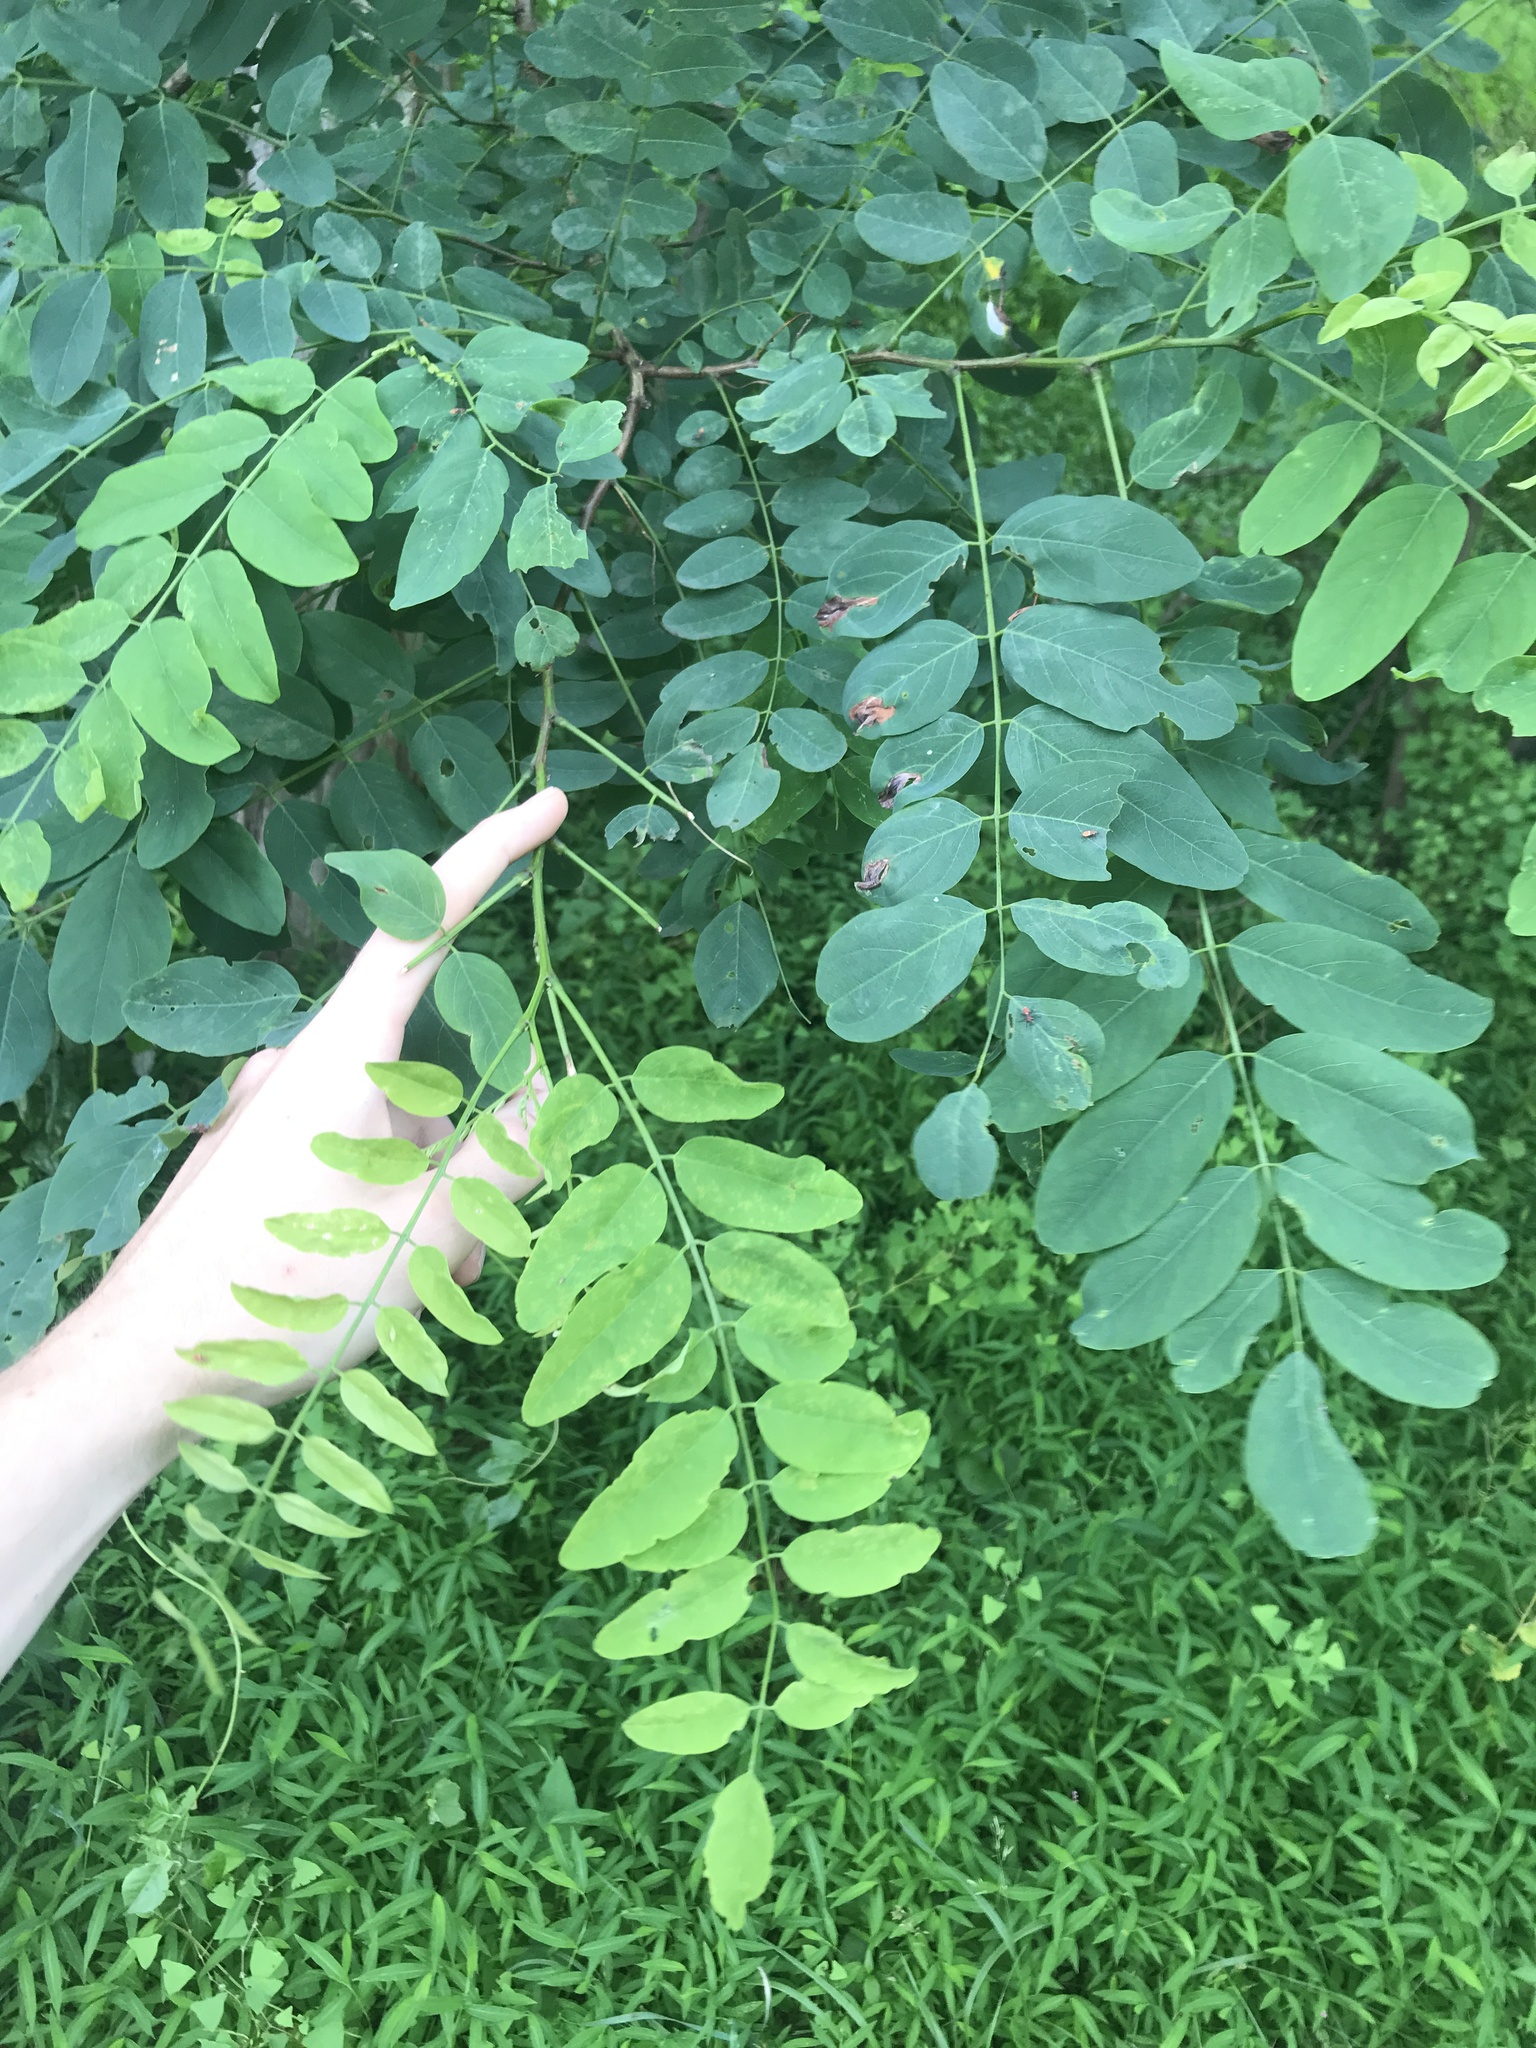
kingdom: Plantae
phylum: Tracheophyta
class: Magnoliopsida
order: Fabales
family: Fabaceae
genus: Robinia
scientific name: Robinia pseudoacacia
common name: Black locust
